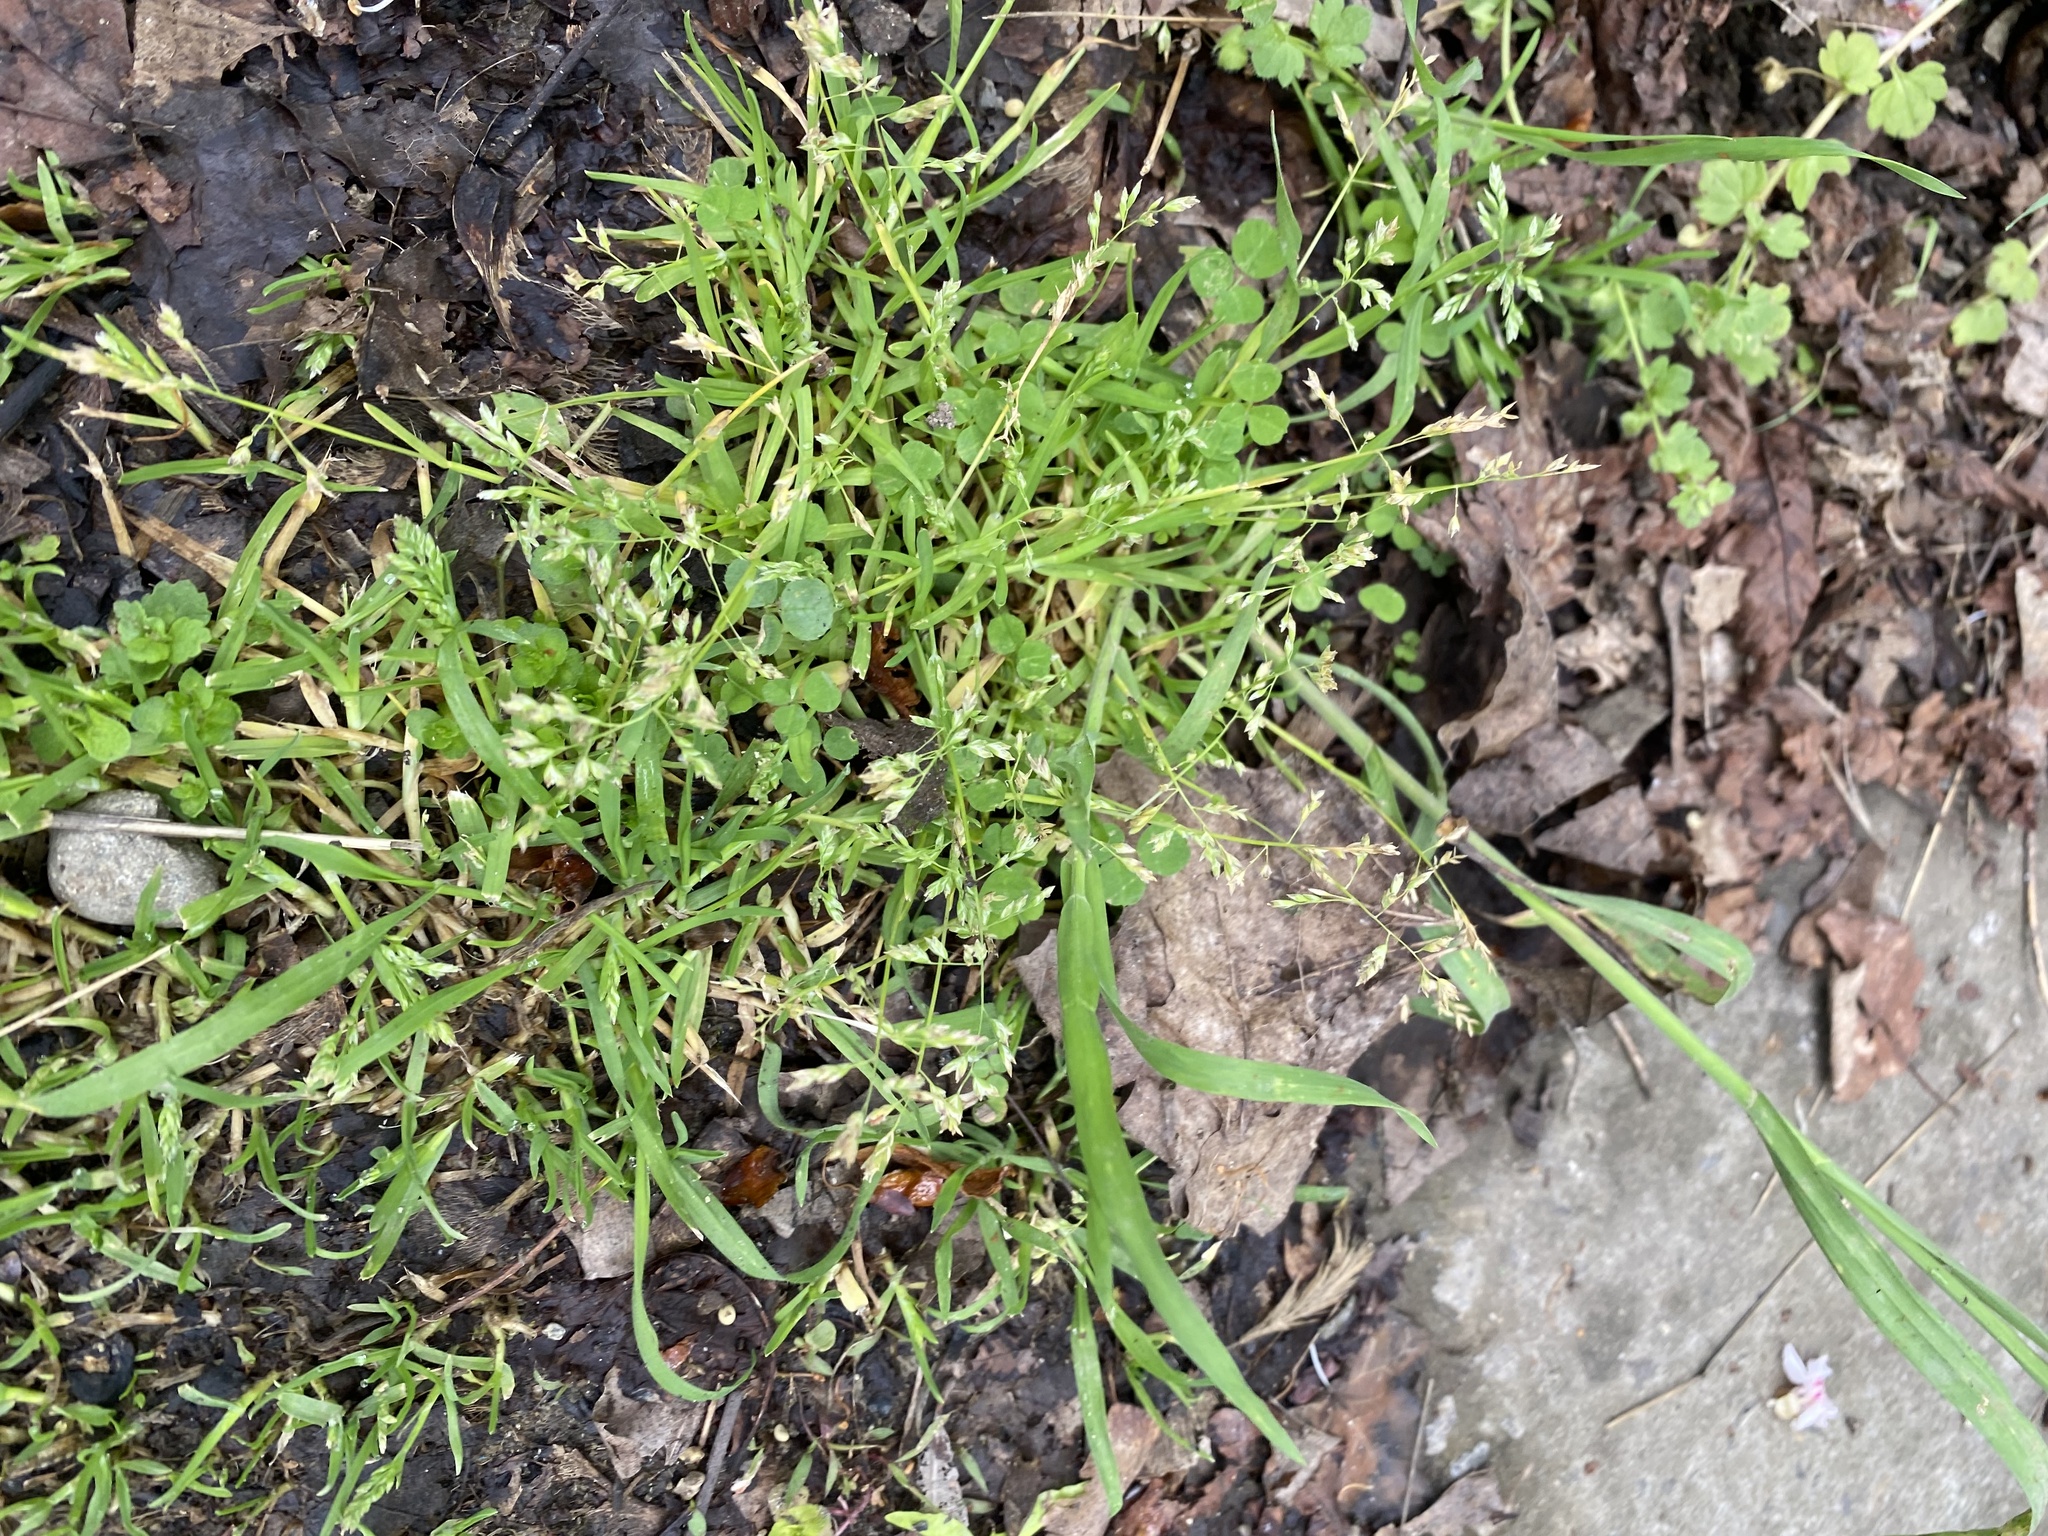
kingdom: Plantae
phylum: Tracheophyta
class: Liliopsida
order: Poales
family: Poaceae
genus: Poa
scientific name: Poa annua
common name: Annual bluegrass
